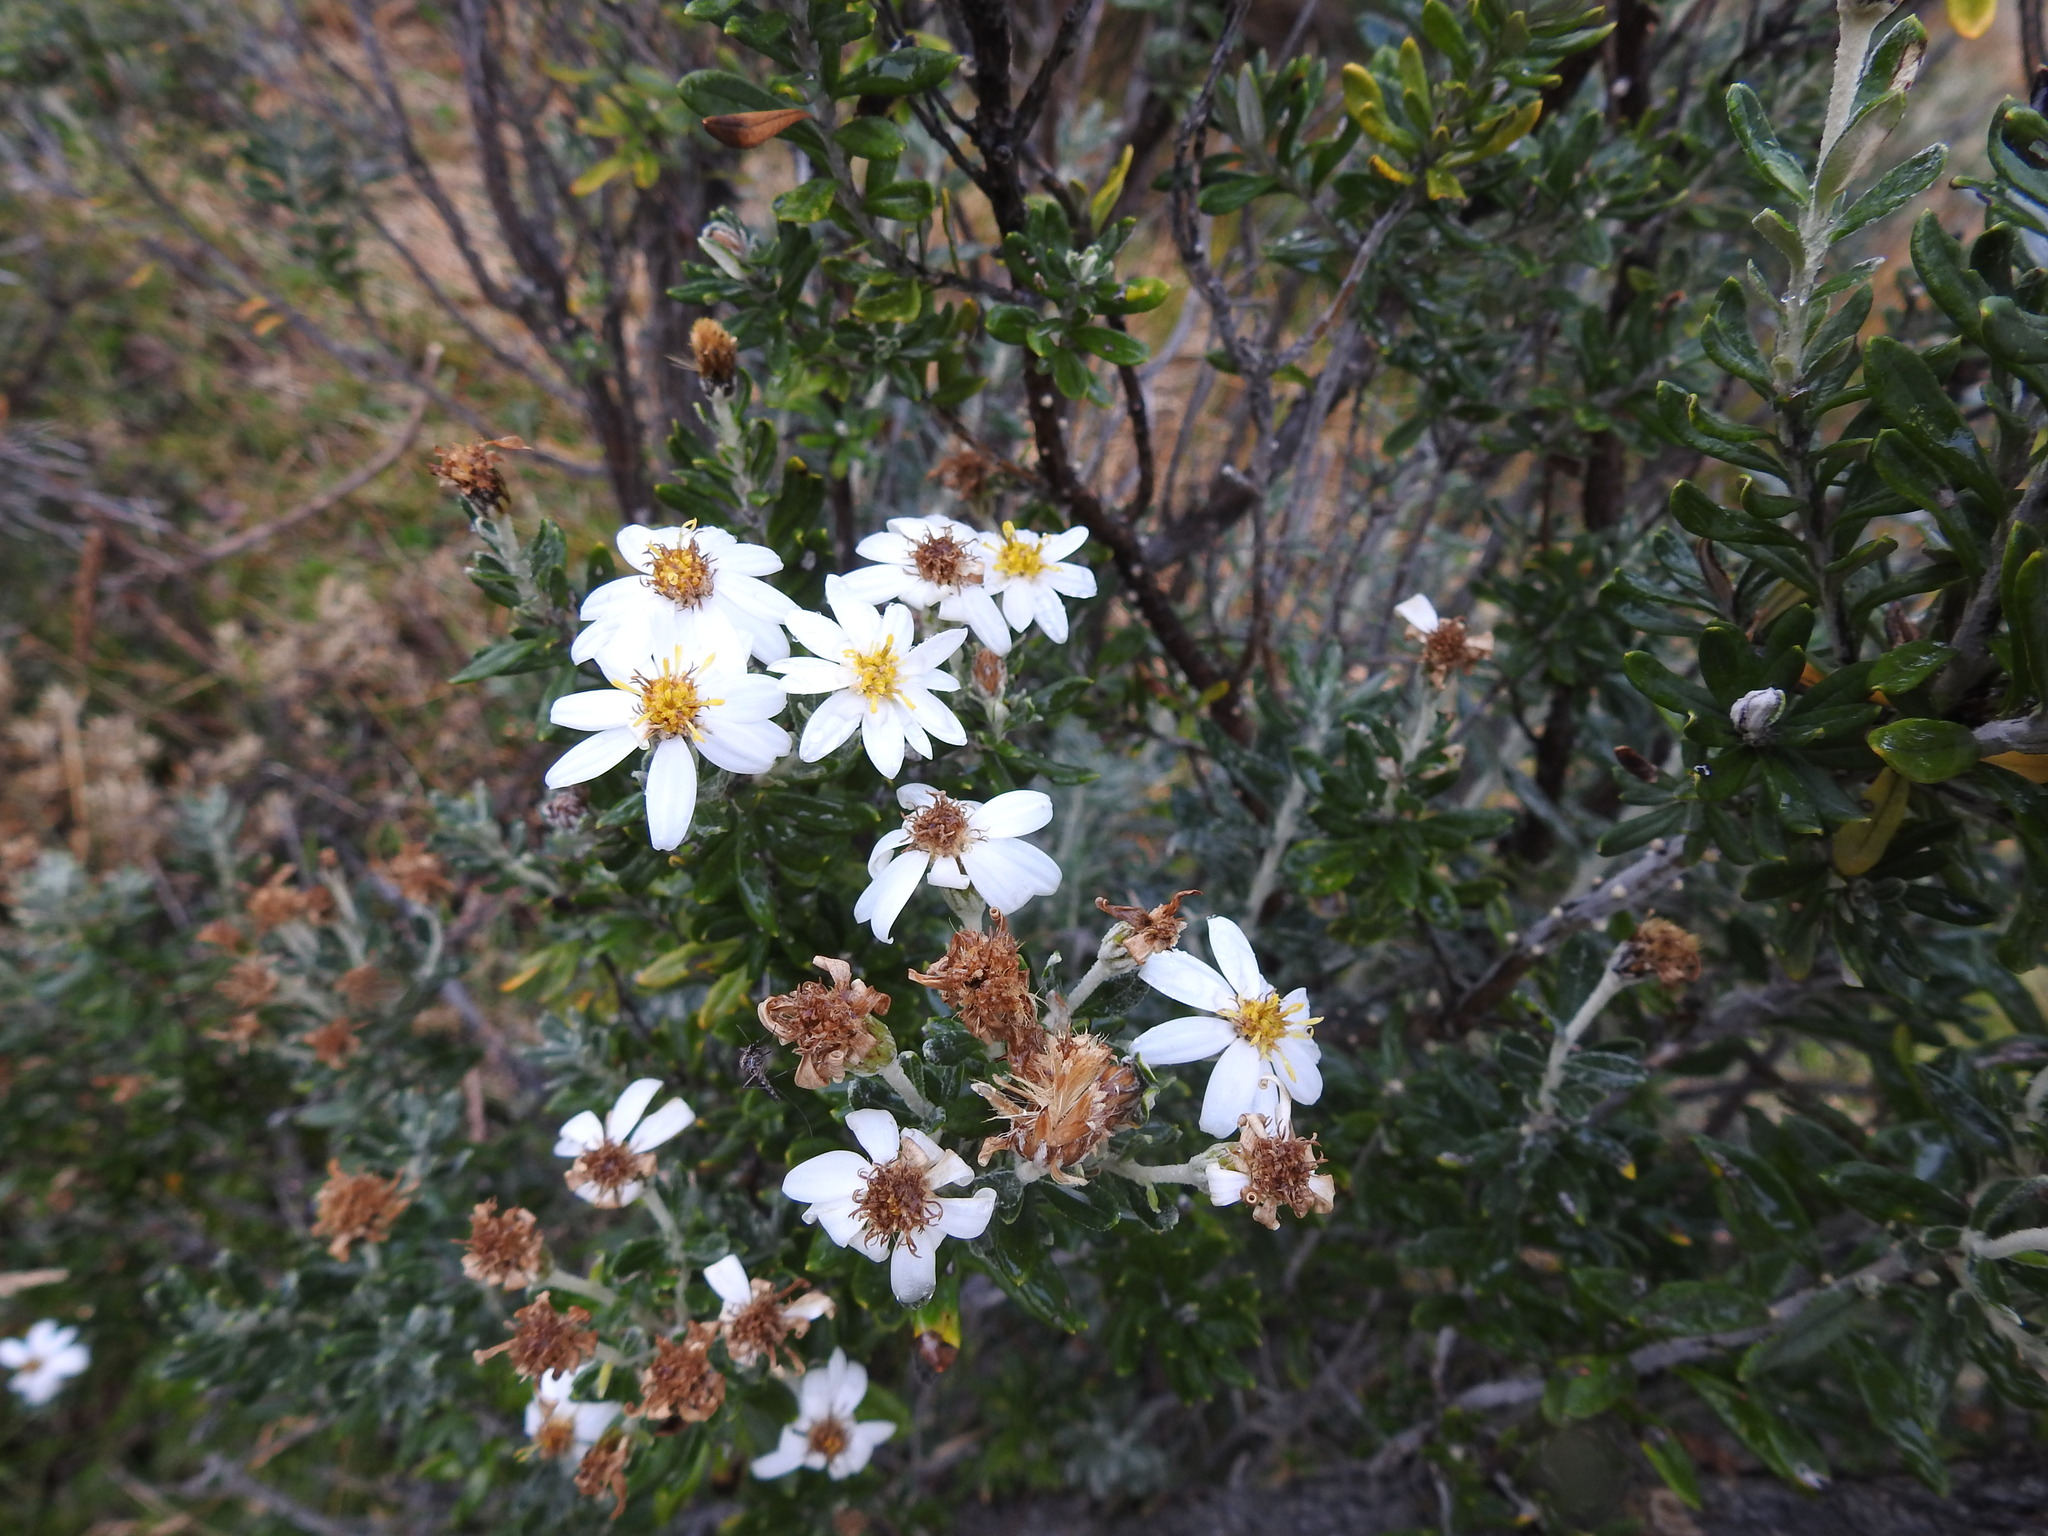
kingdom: Plantae
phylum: Tracheophyta
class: Magnoliopsida
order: Asterales
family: Asteraceae
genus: Chiliotrichum
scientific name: Chiliotrichum diffusum
